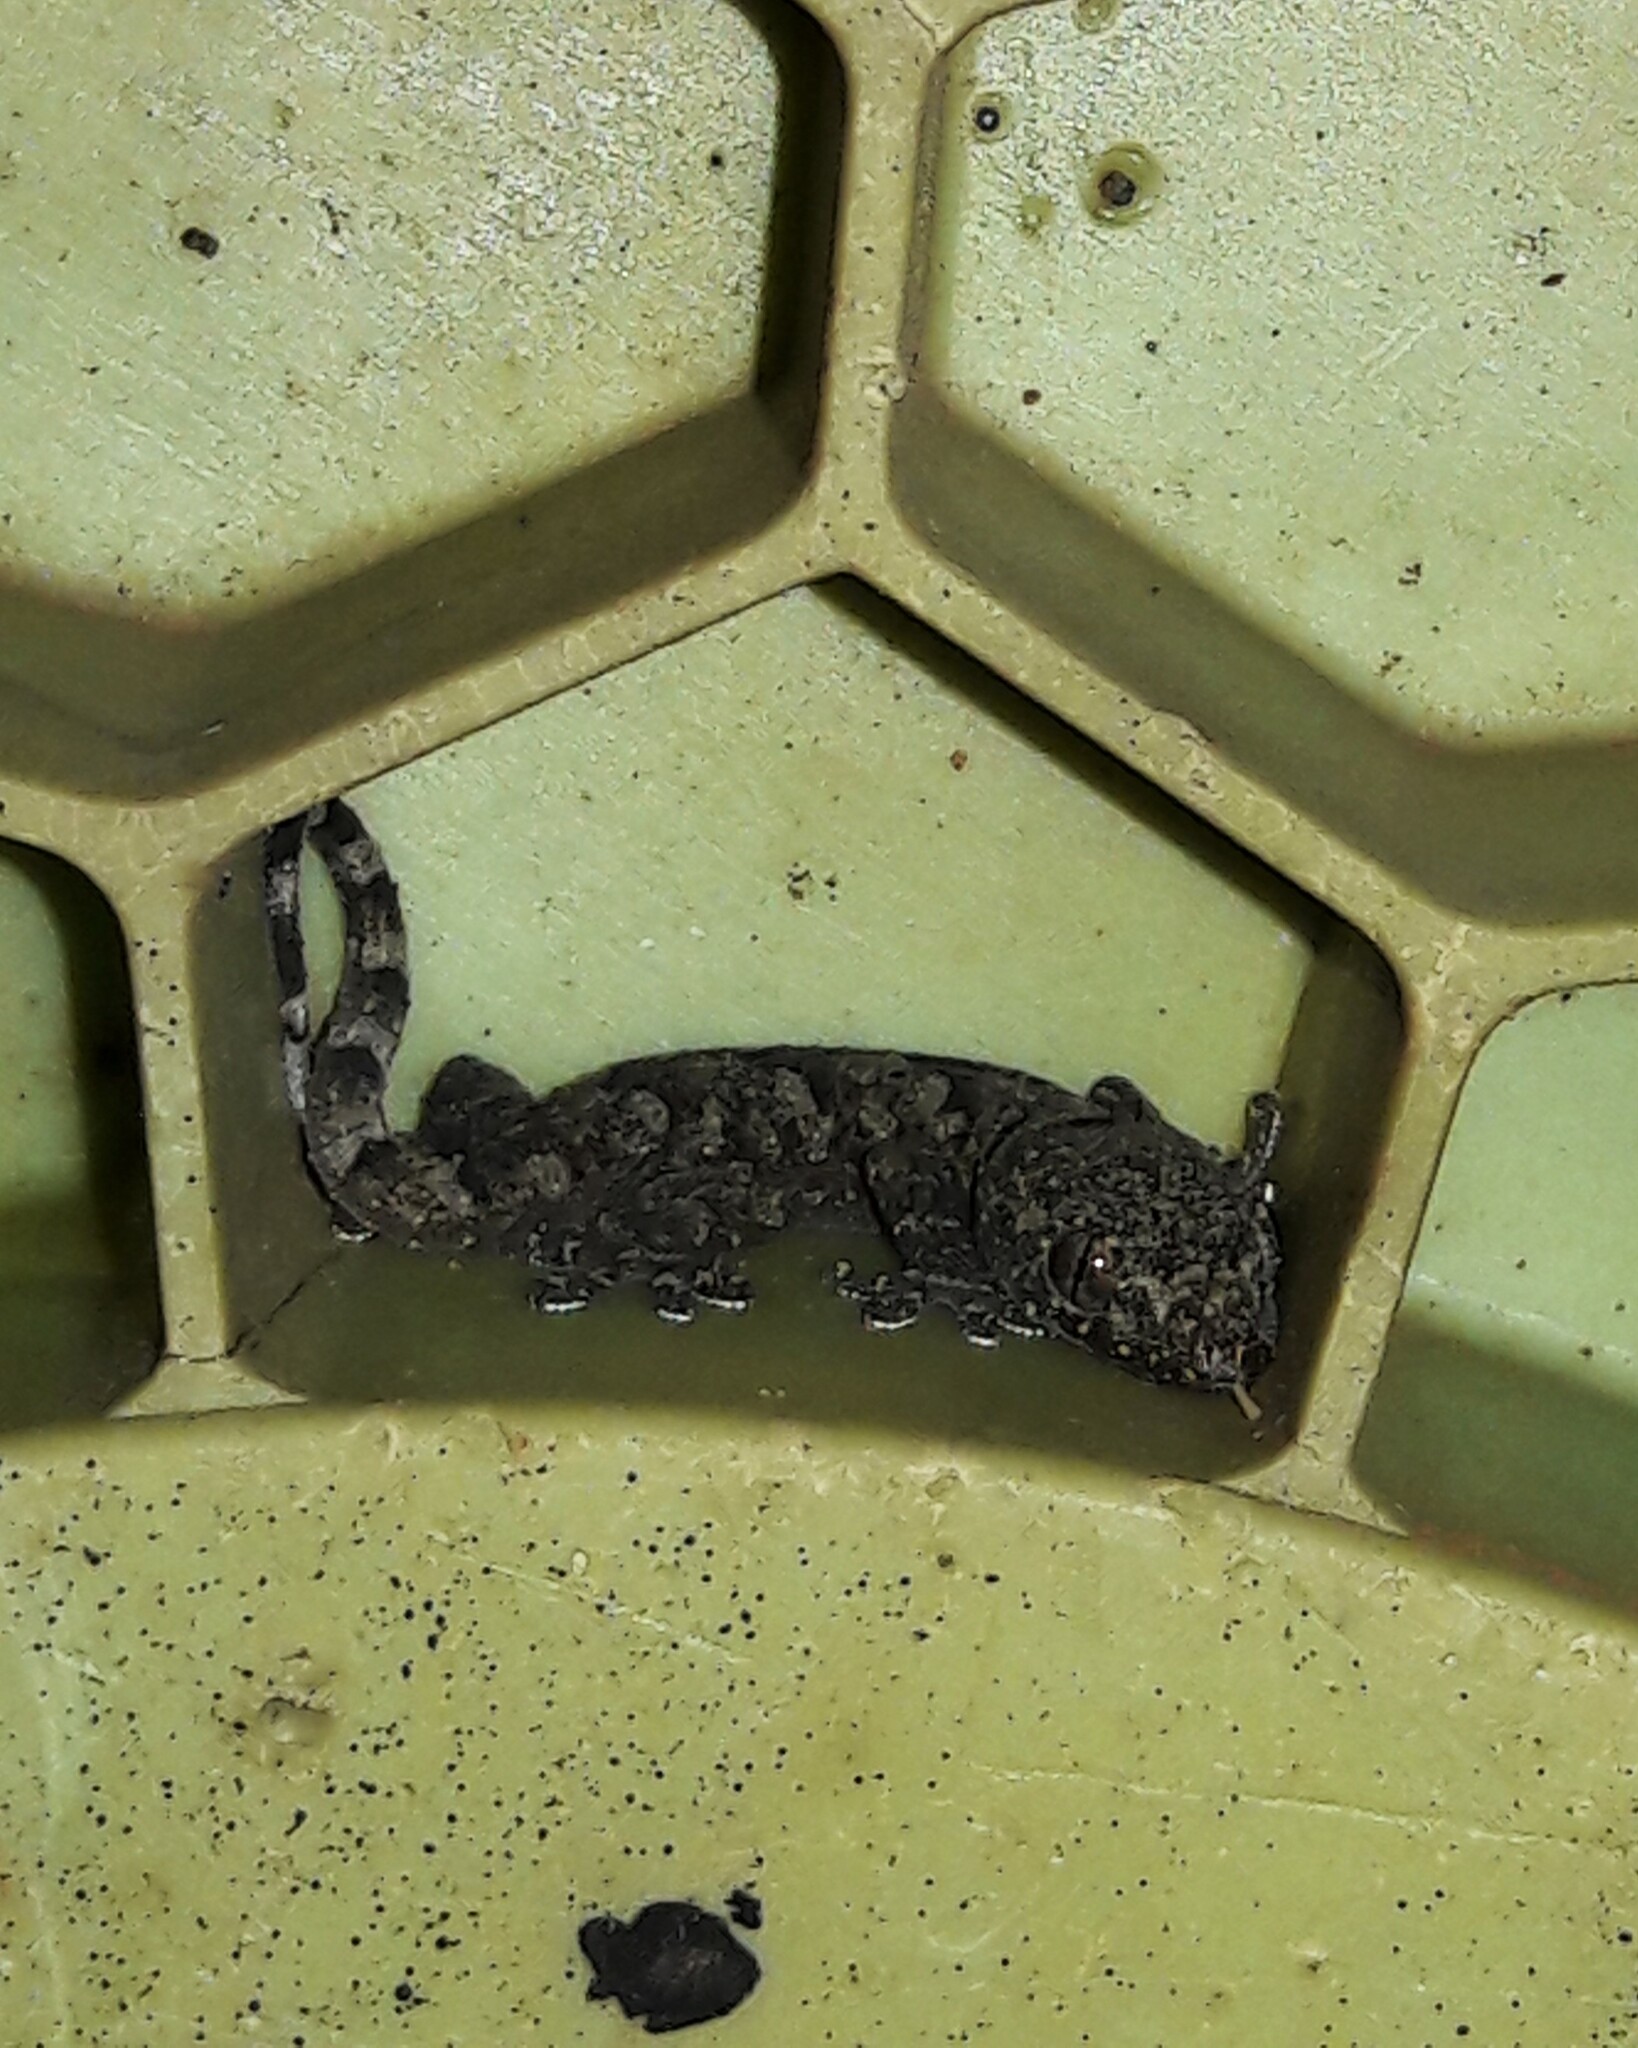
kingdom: Animalia
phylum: Chordata
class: Squamata
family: Gekkonidae
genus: Hemidactylus
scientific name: Hemidactylus mabouia
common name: House gecko
